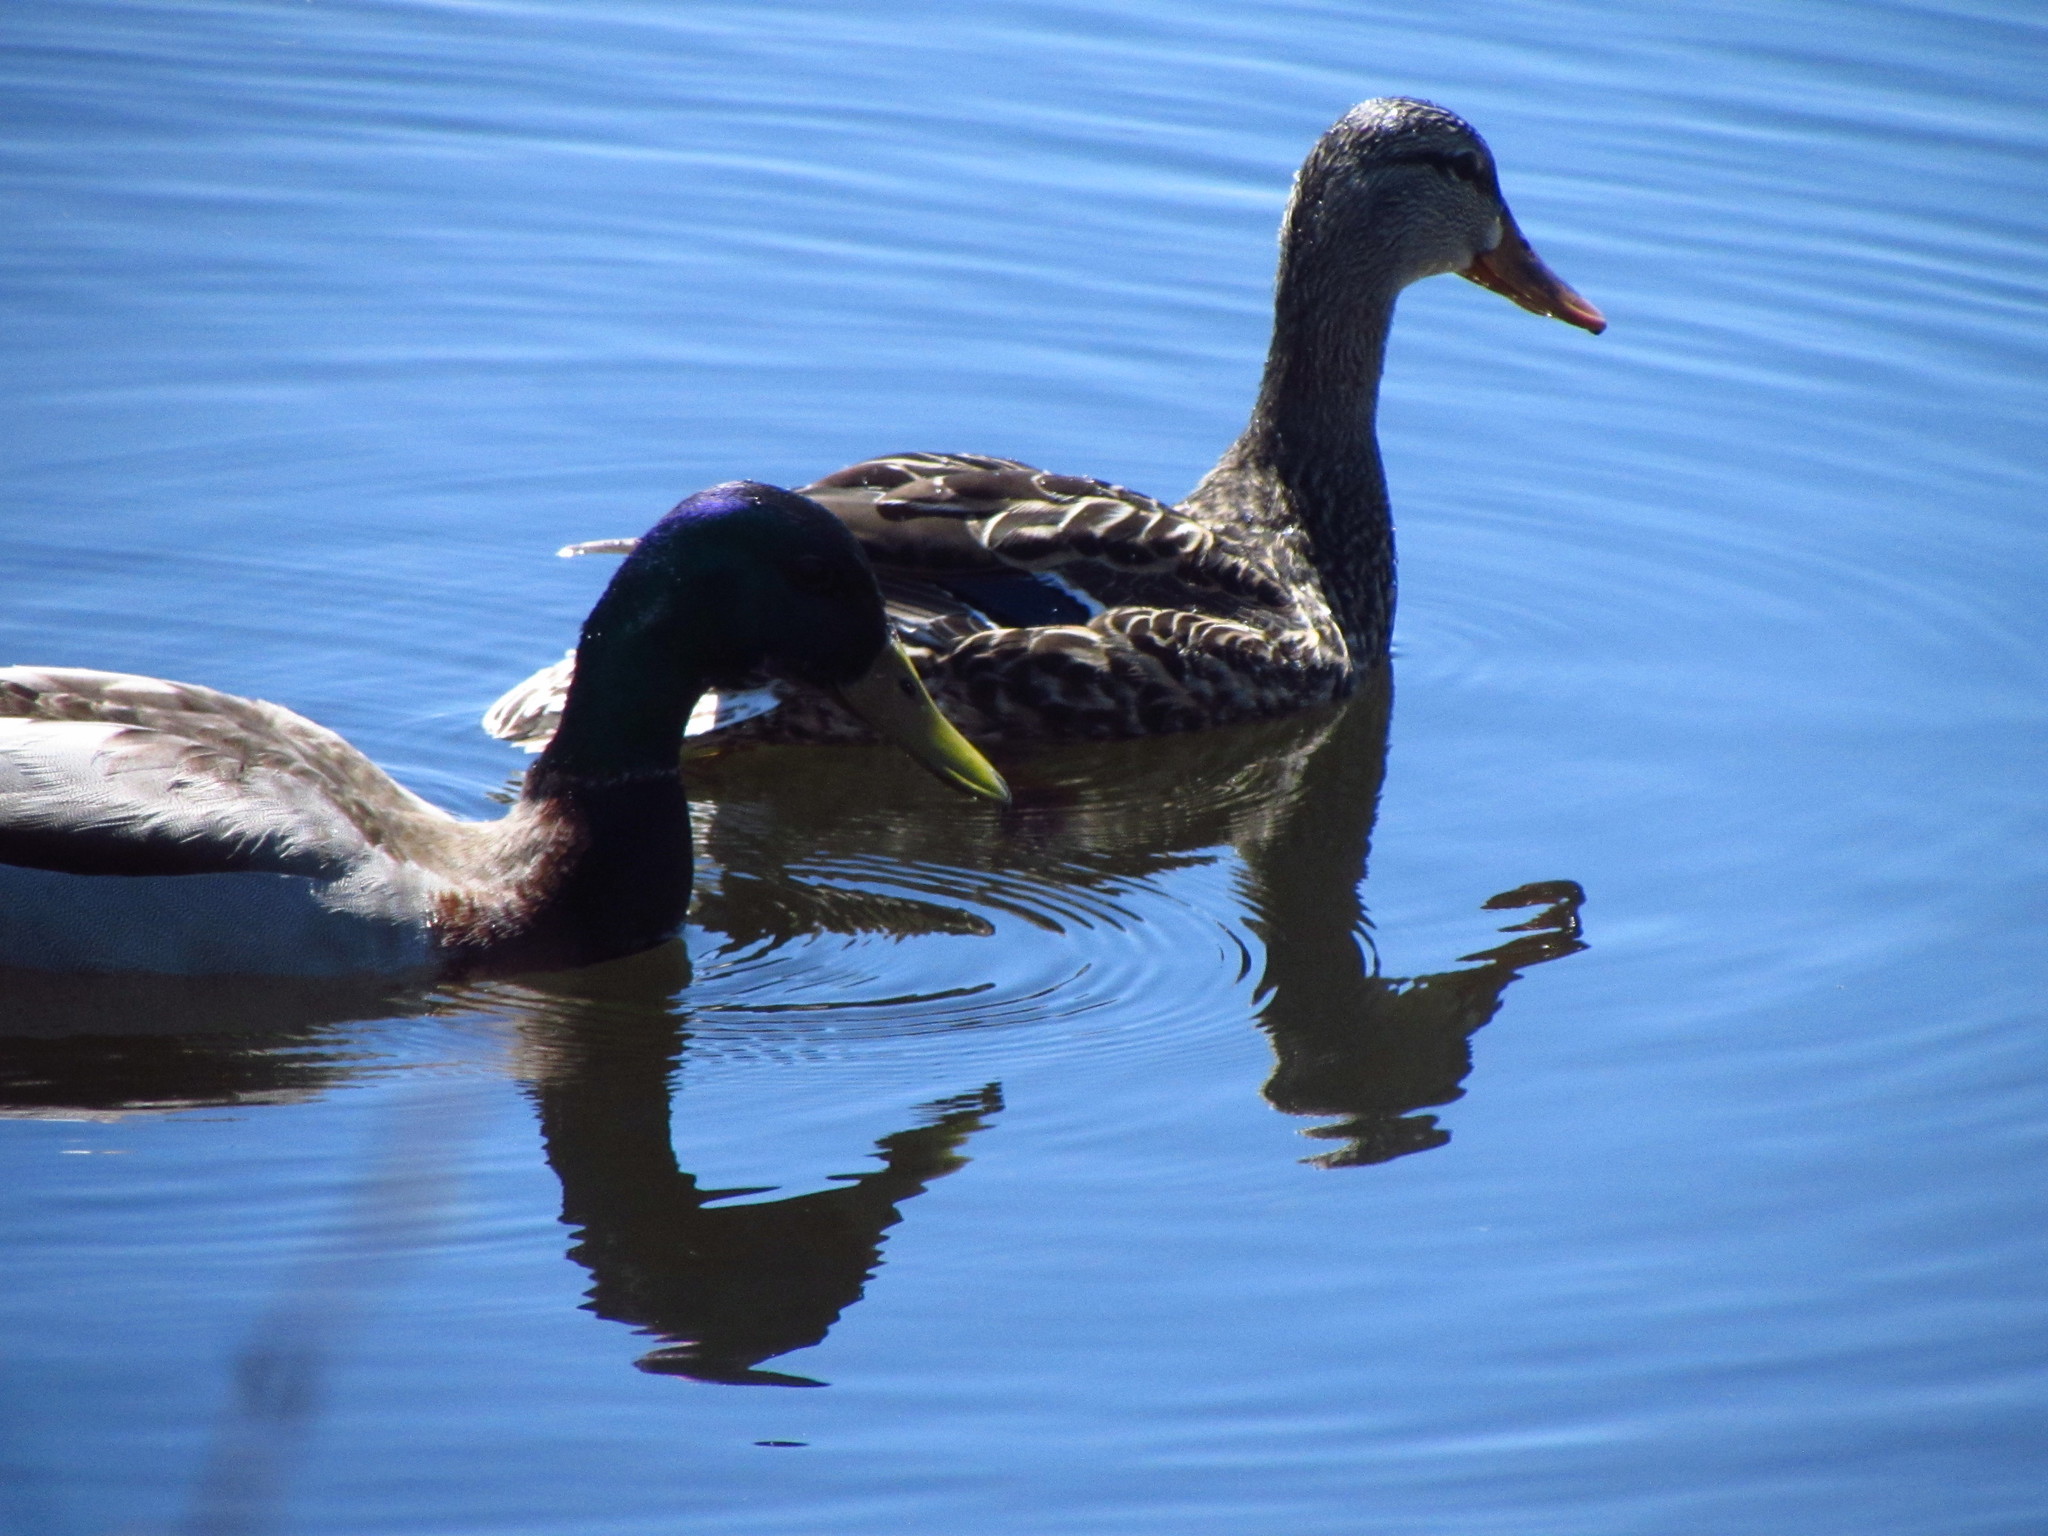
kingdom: Animalia
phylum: Chordata
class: Aves
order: Anseriformes
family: Anatidae
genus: Anas
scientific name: Anas platyrhynchos
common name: Mallard
